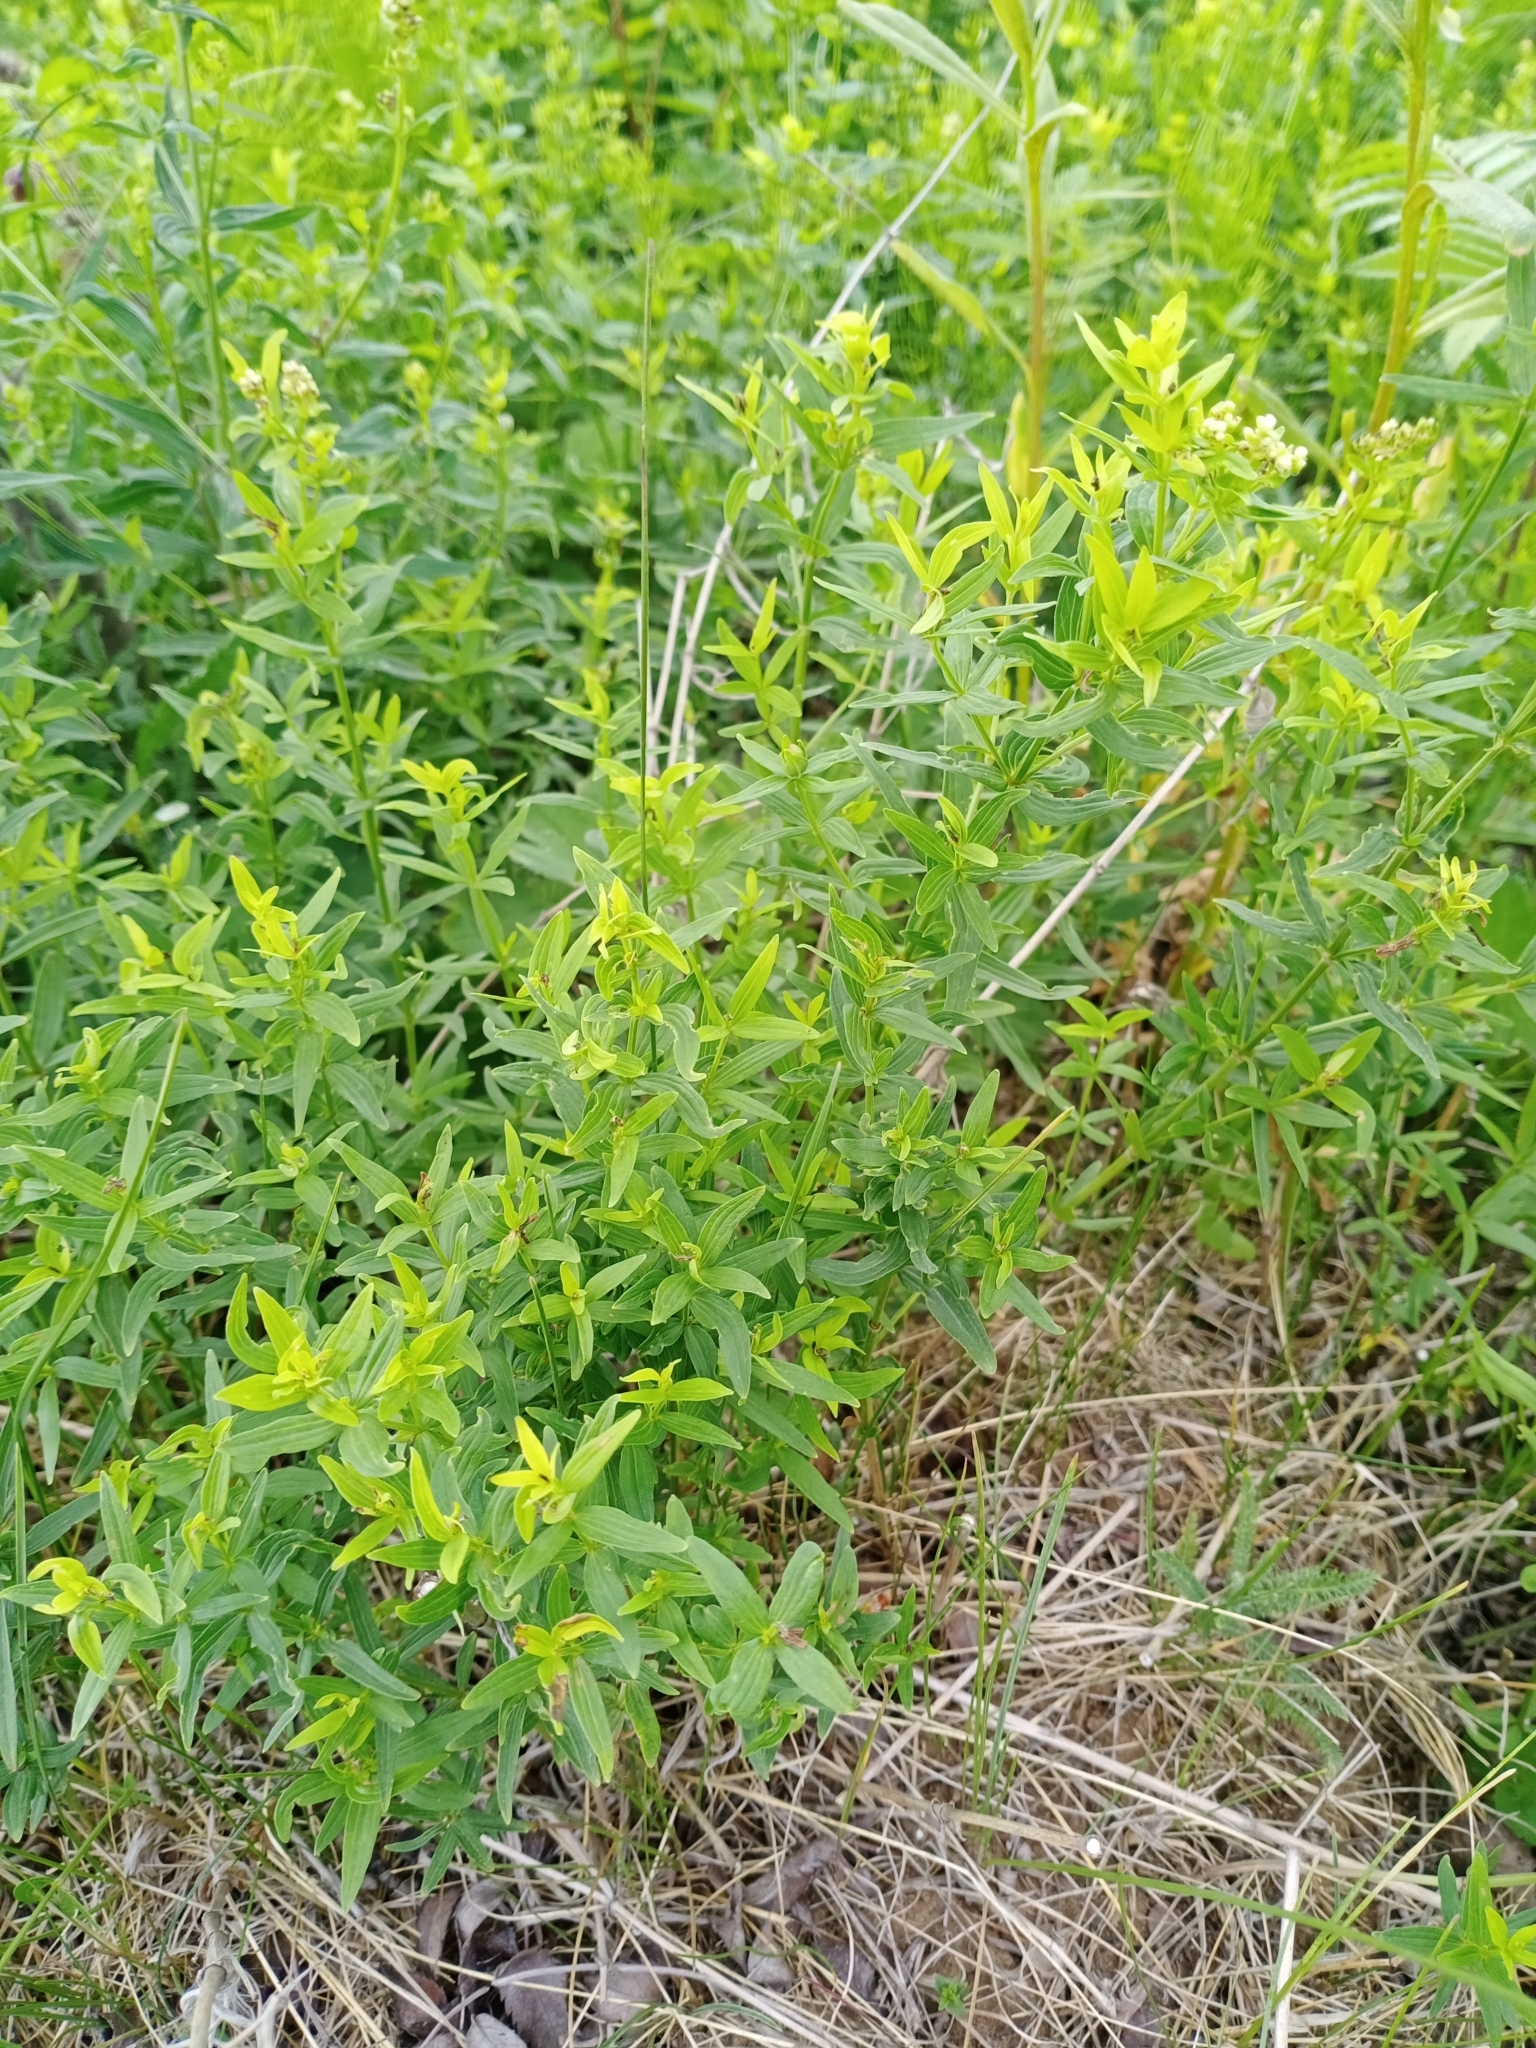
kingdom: Plantae
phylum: Tracheophyta
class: Magnoliopsida
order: Gentianales
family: Rubiaceae
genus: Galium
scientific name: Galium boreale
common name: Northern bedstraw
